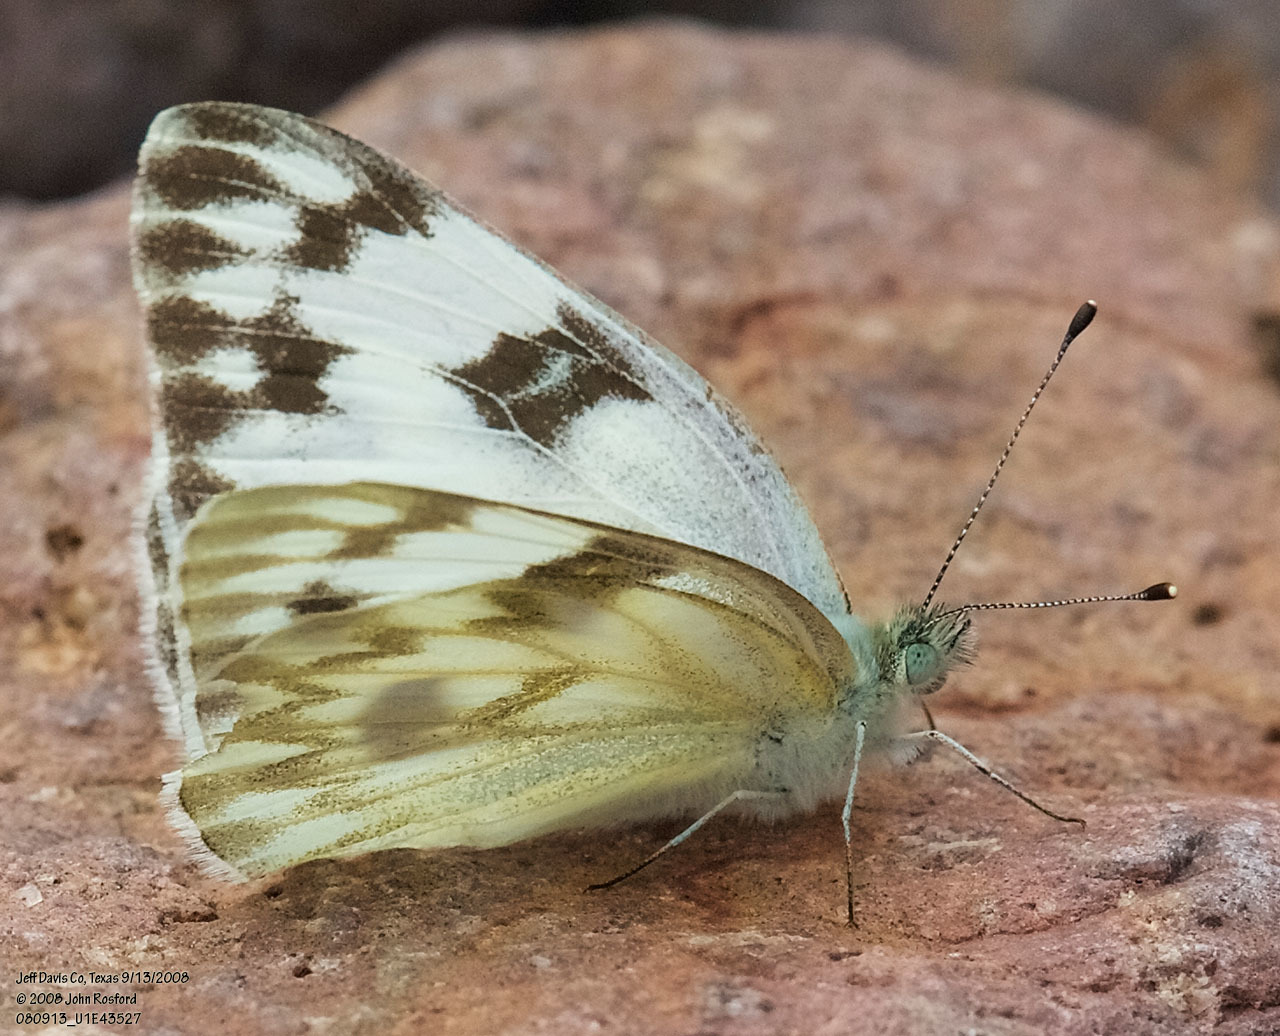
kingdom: Animalia
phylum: Arthropoda
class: Insecta
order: Lepidoptera
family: Pieridae
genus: Pontia
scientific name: Pontia protodice
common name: Checkered white
